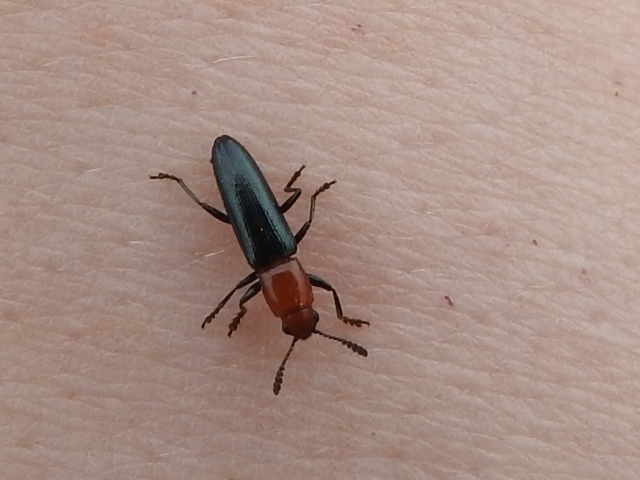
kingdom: Animalia
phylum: Arthropoda
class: Insecta
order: Coleoptera
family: Erotylidae
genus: Languria
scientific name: Languria mozardi
